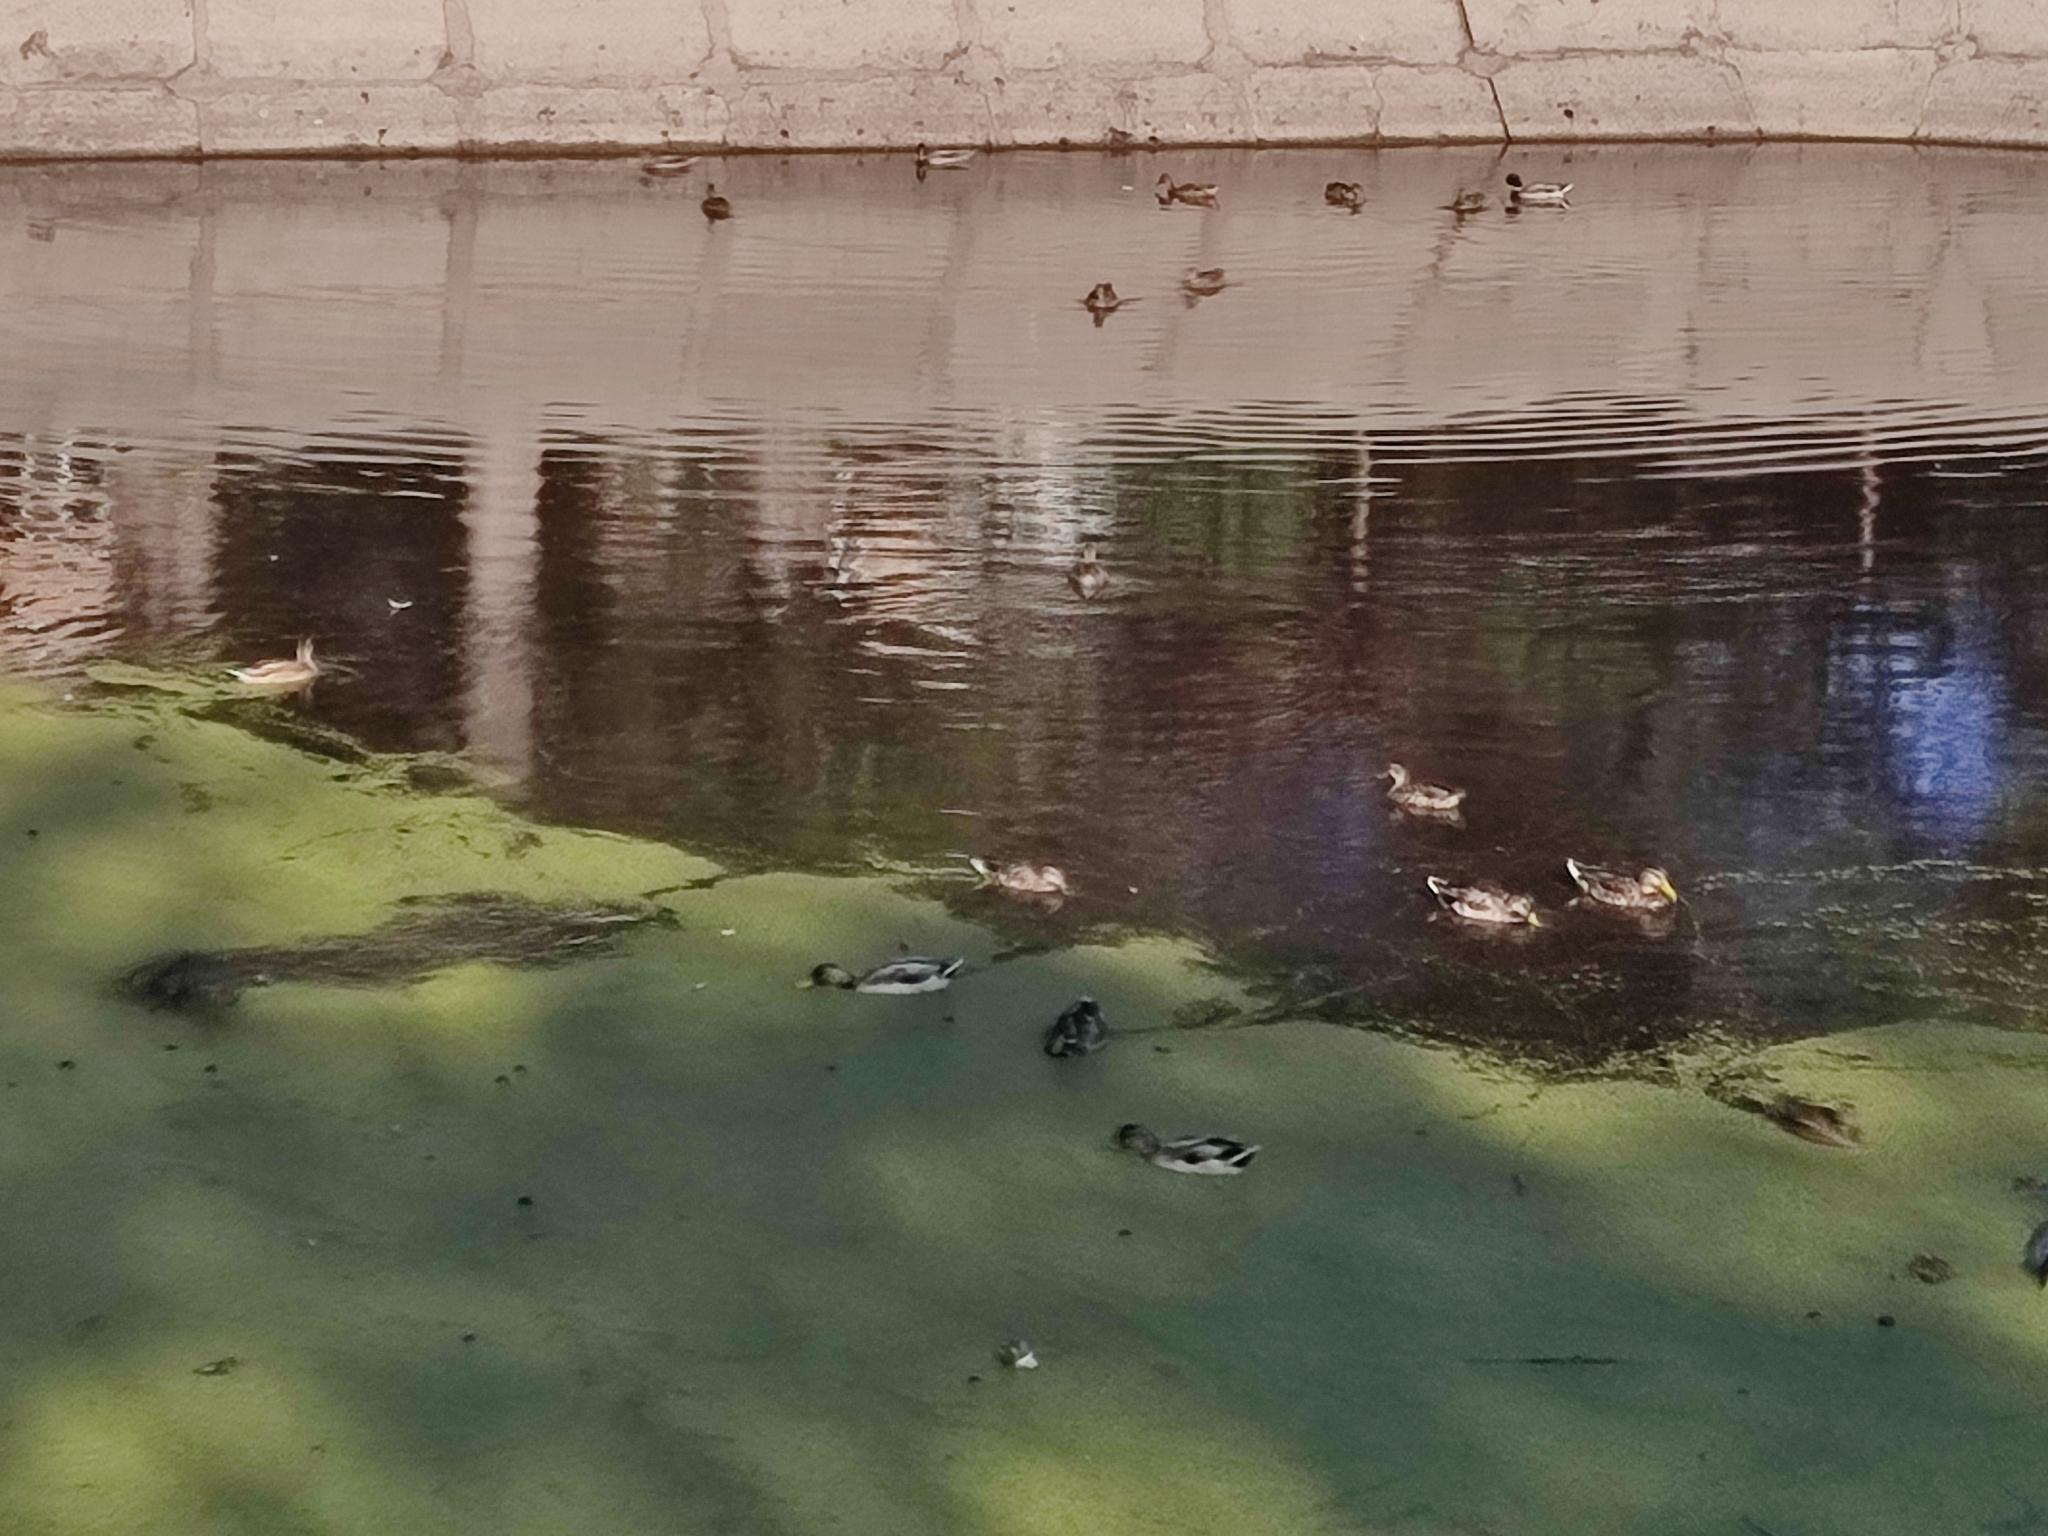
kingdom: Animalia
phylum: Chordata
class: Aves
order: Anseriformes
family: Anatidae
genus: Anas
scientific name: Anas platyrhynchos
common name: Mallard
